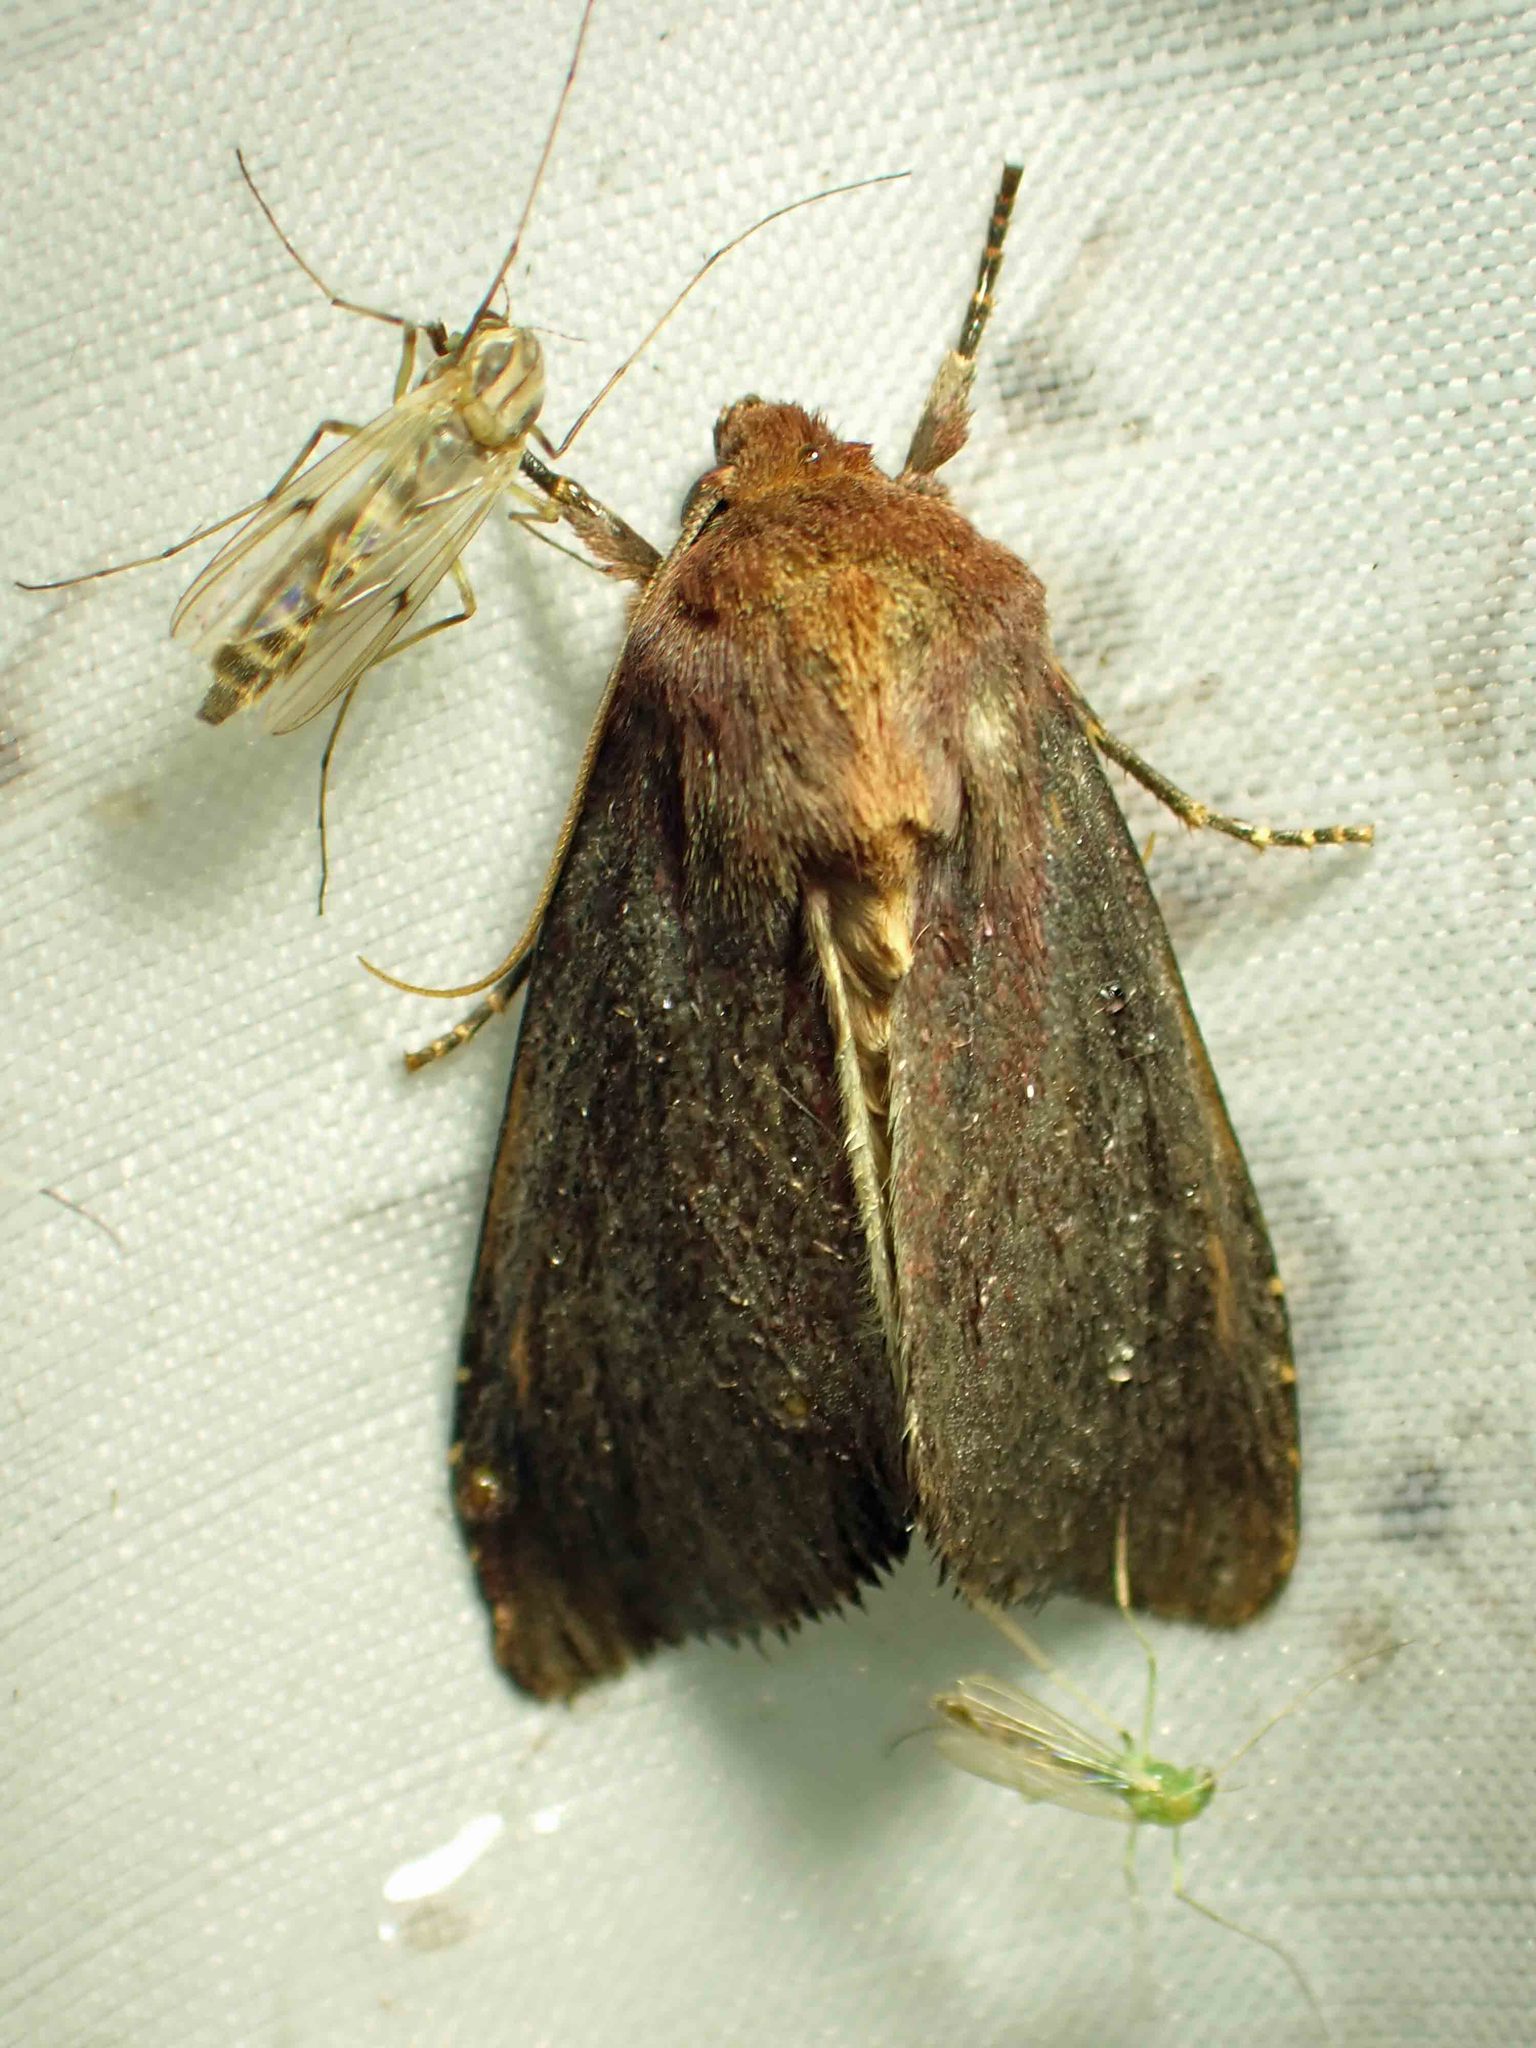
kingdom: Animalia
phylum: Arthropoda
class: Insecta
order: Lepidoptera
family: Noctuidae
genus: Sideridis
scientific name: Sideridis maryx
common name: Maroonwing moth
